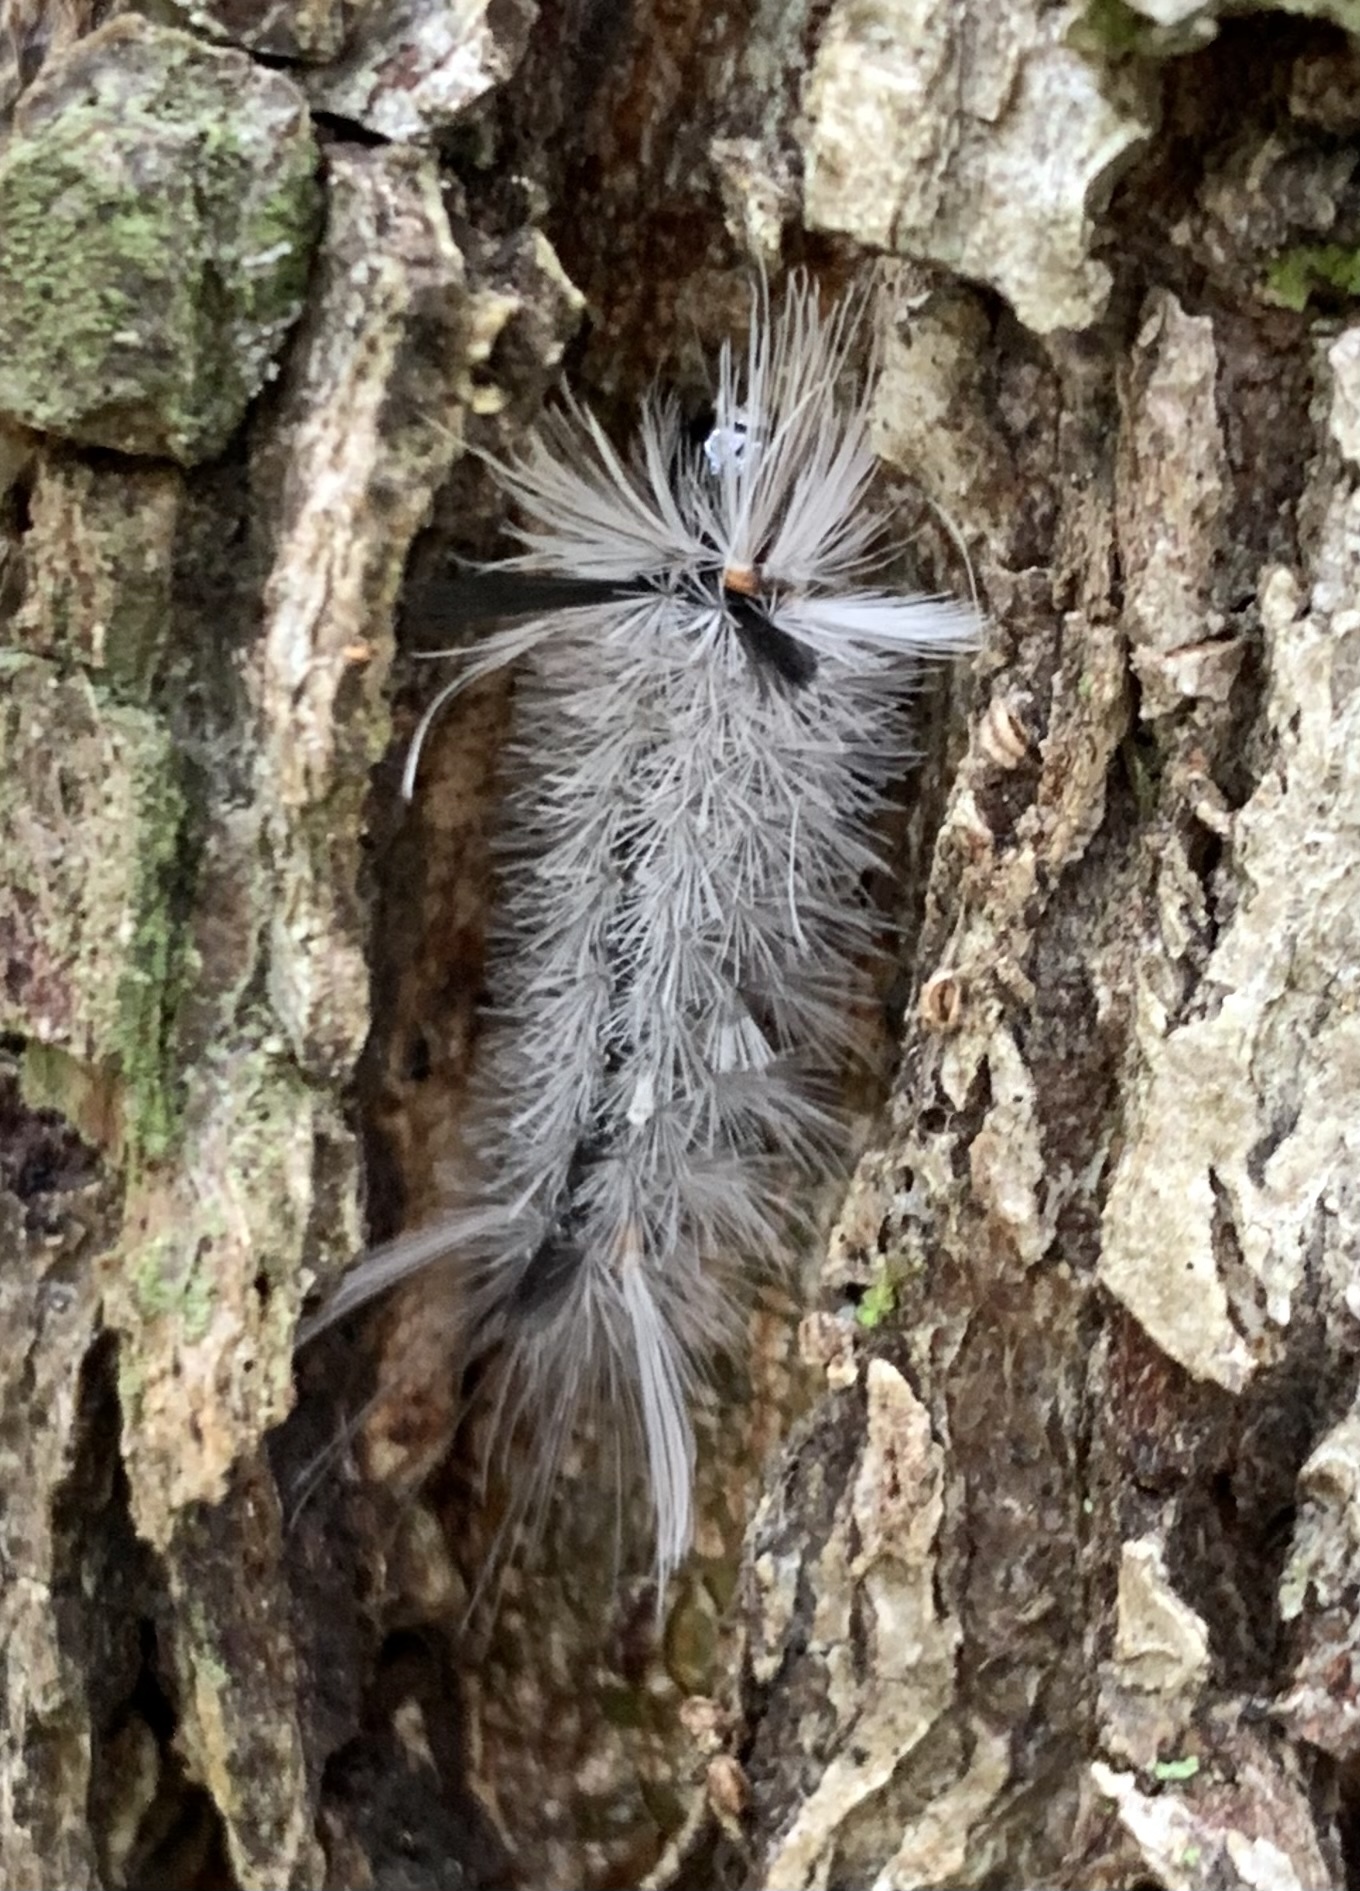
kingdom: Animalia
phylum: Arthropoda
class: Insecta
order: Lepidoptera
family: Erebidae
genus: Halysidota
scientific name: Halysidota tessellaris
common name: Banded tussock moth
